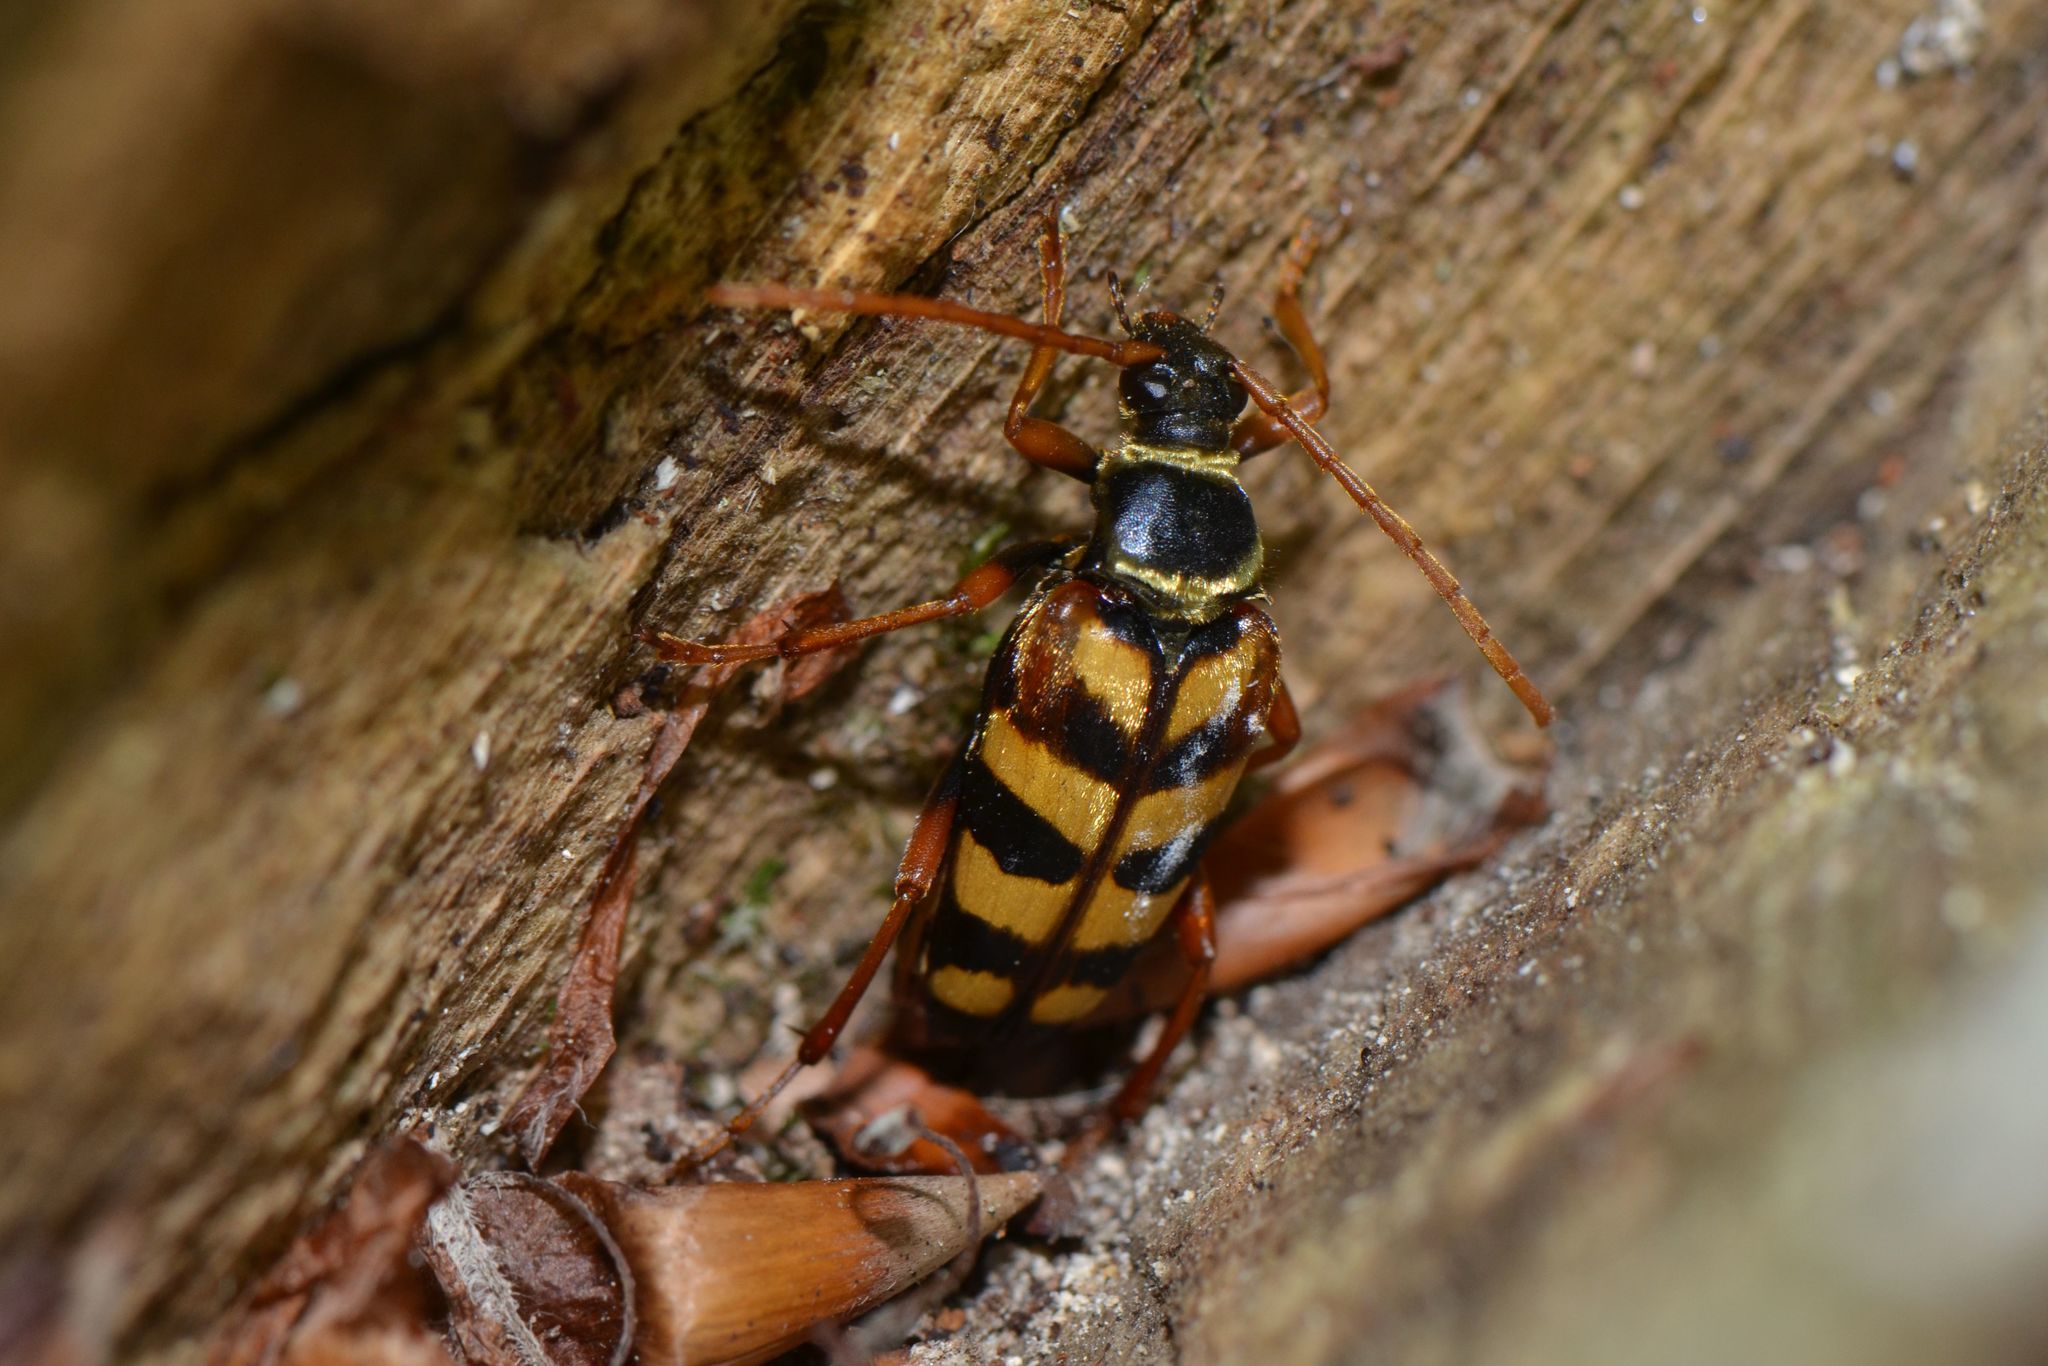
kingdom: Animalia
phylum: Arthropoda
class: Insecta
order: Coleoptera
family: Cerambycidae
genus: Leptura
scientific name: Leptura aurulenta
